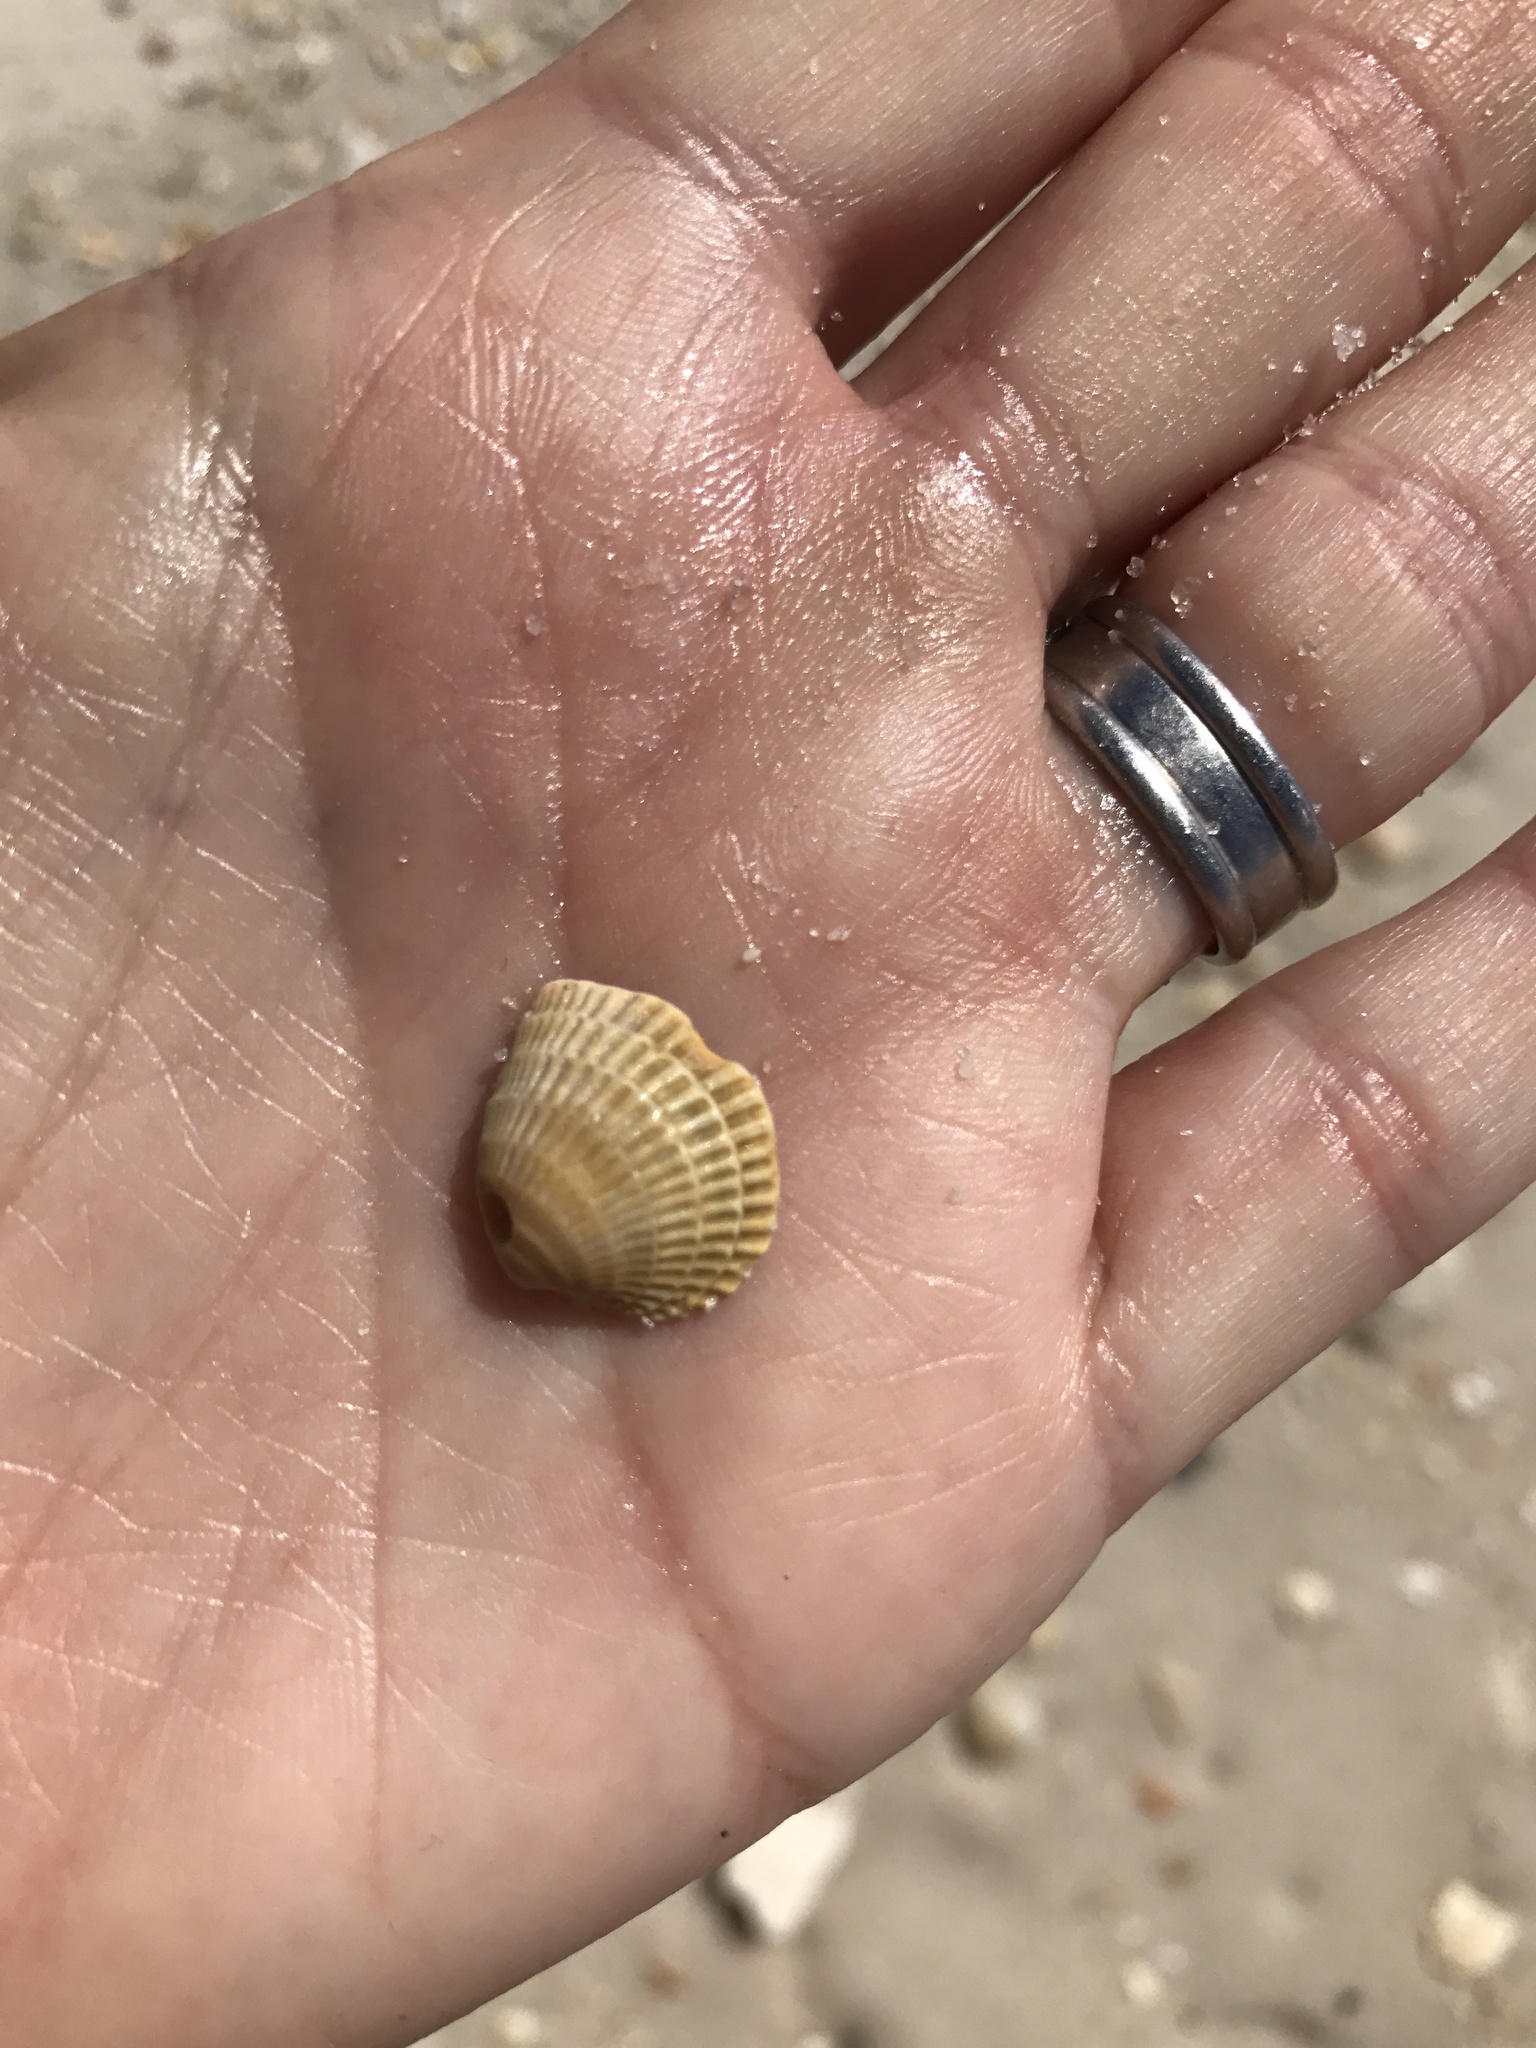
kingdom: Animalia
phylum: Mollusca
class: Bivalvia
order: Venerida
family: Veneridae
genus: Chione
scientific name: Chione elevata
